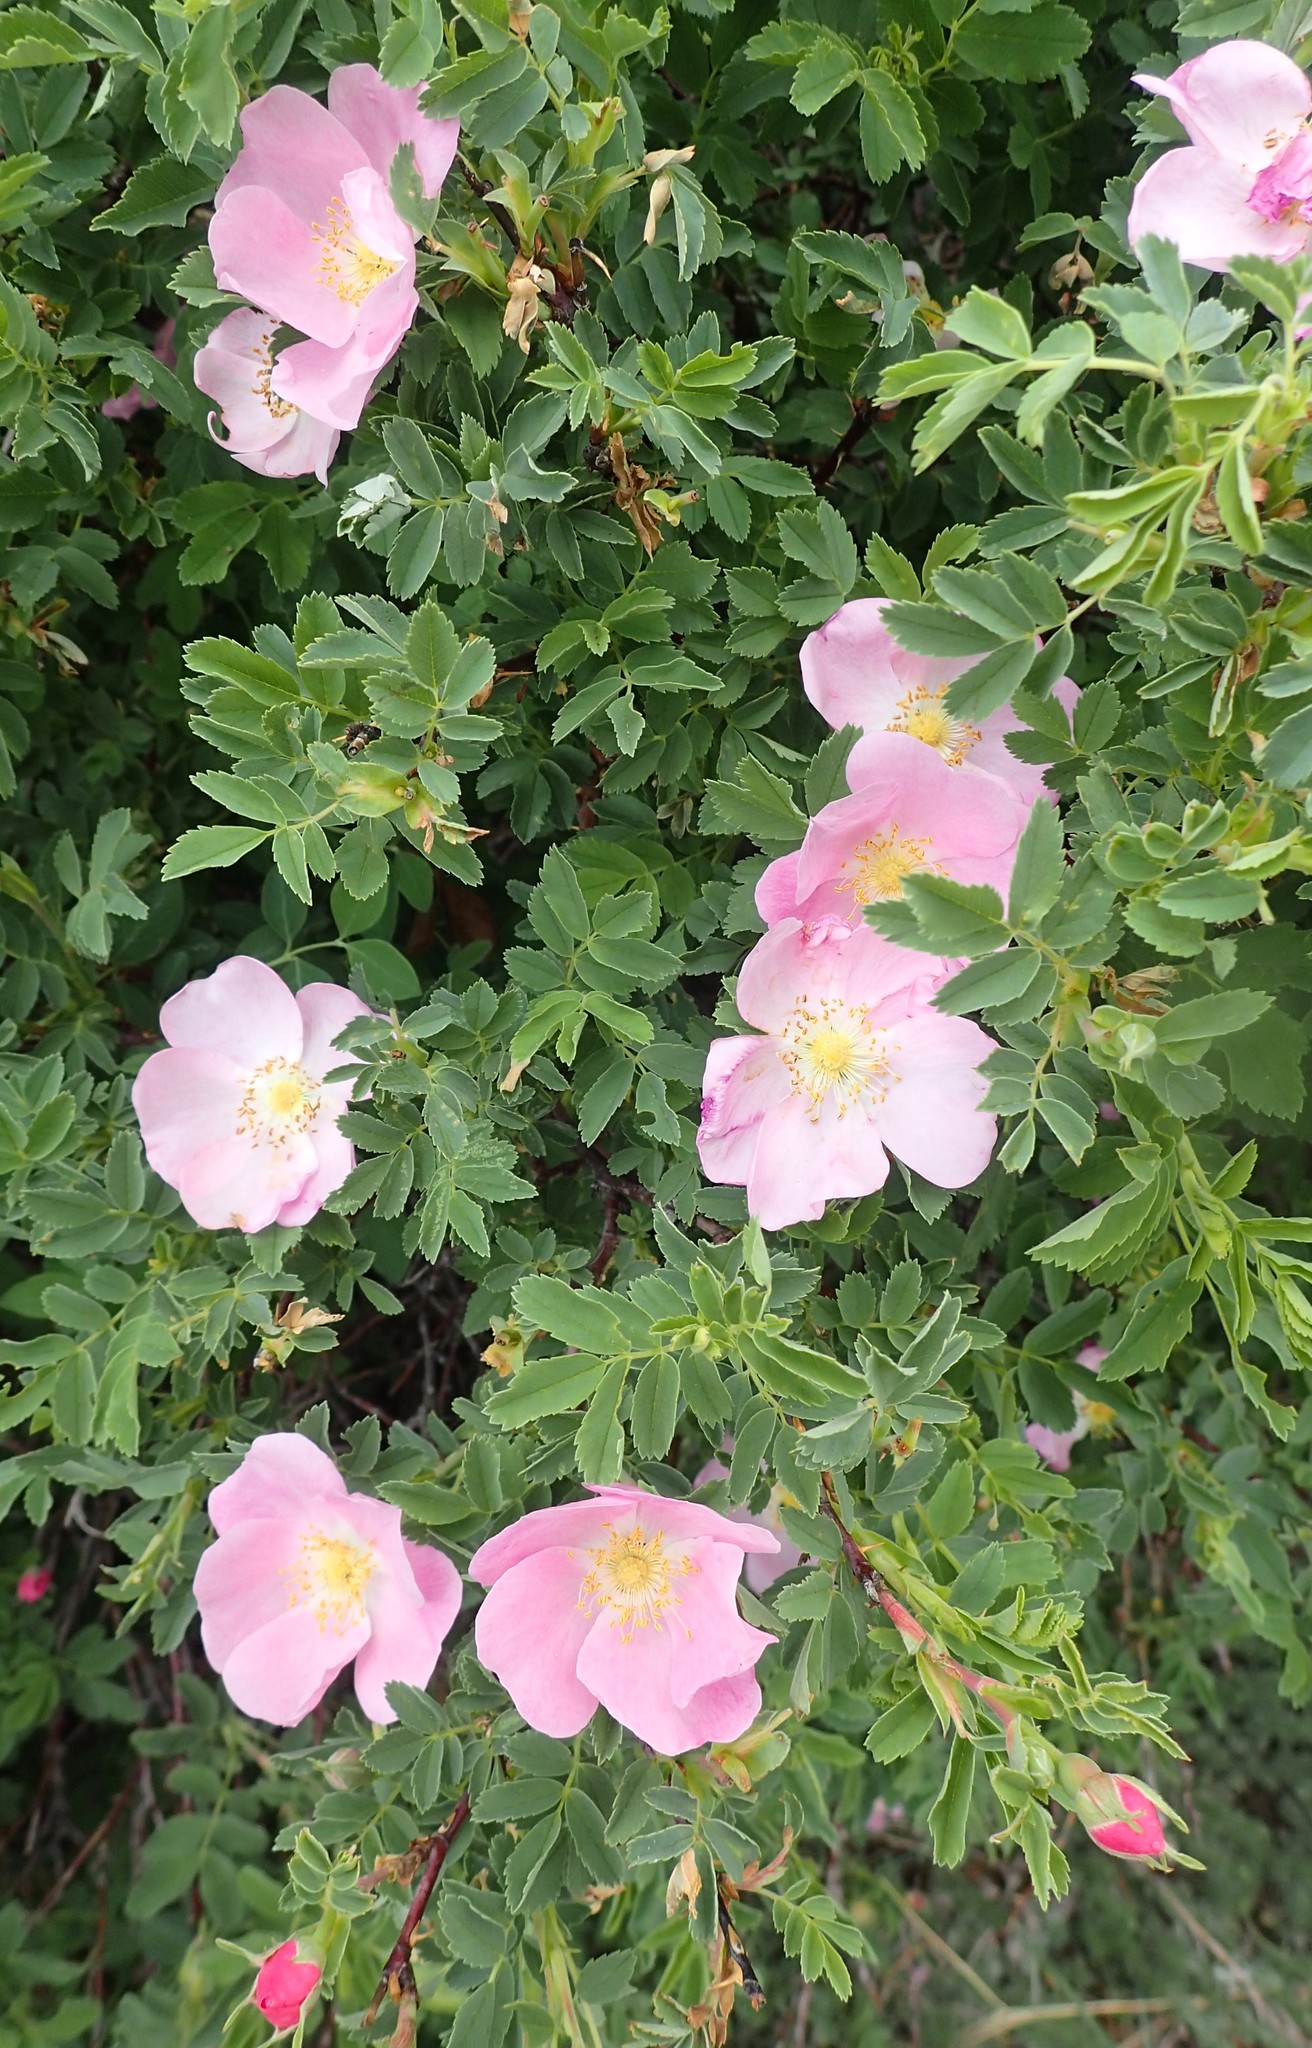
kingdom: Plantae
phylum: Tracheophyta
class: Magnoliopsida
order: Rosales
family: Rosaceae
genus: Rosa
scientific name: Rosa arkansana
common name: Prairie rose
